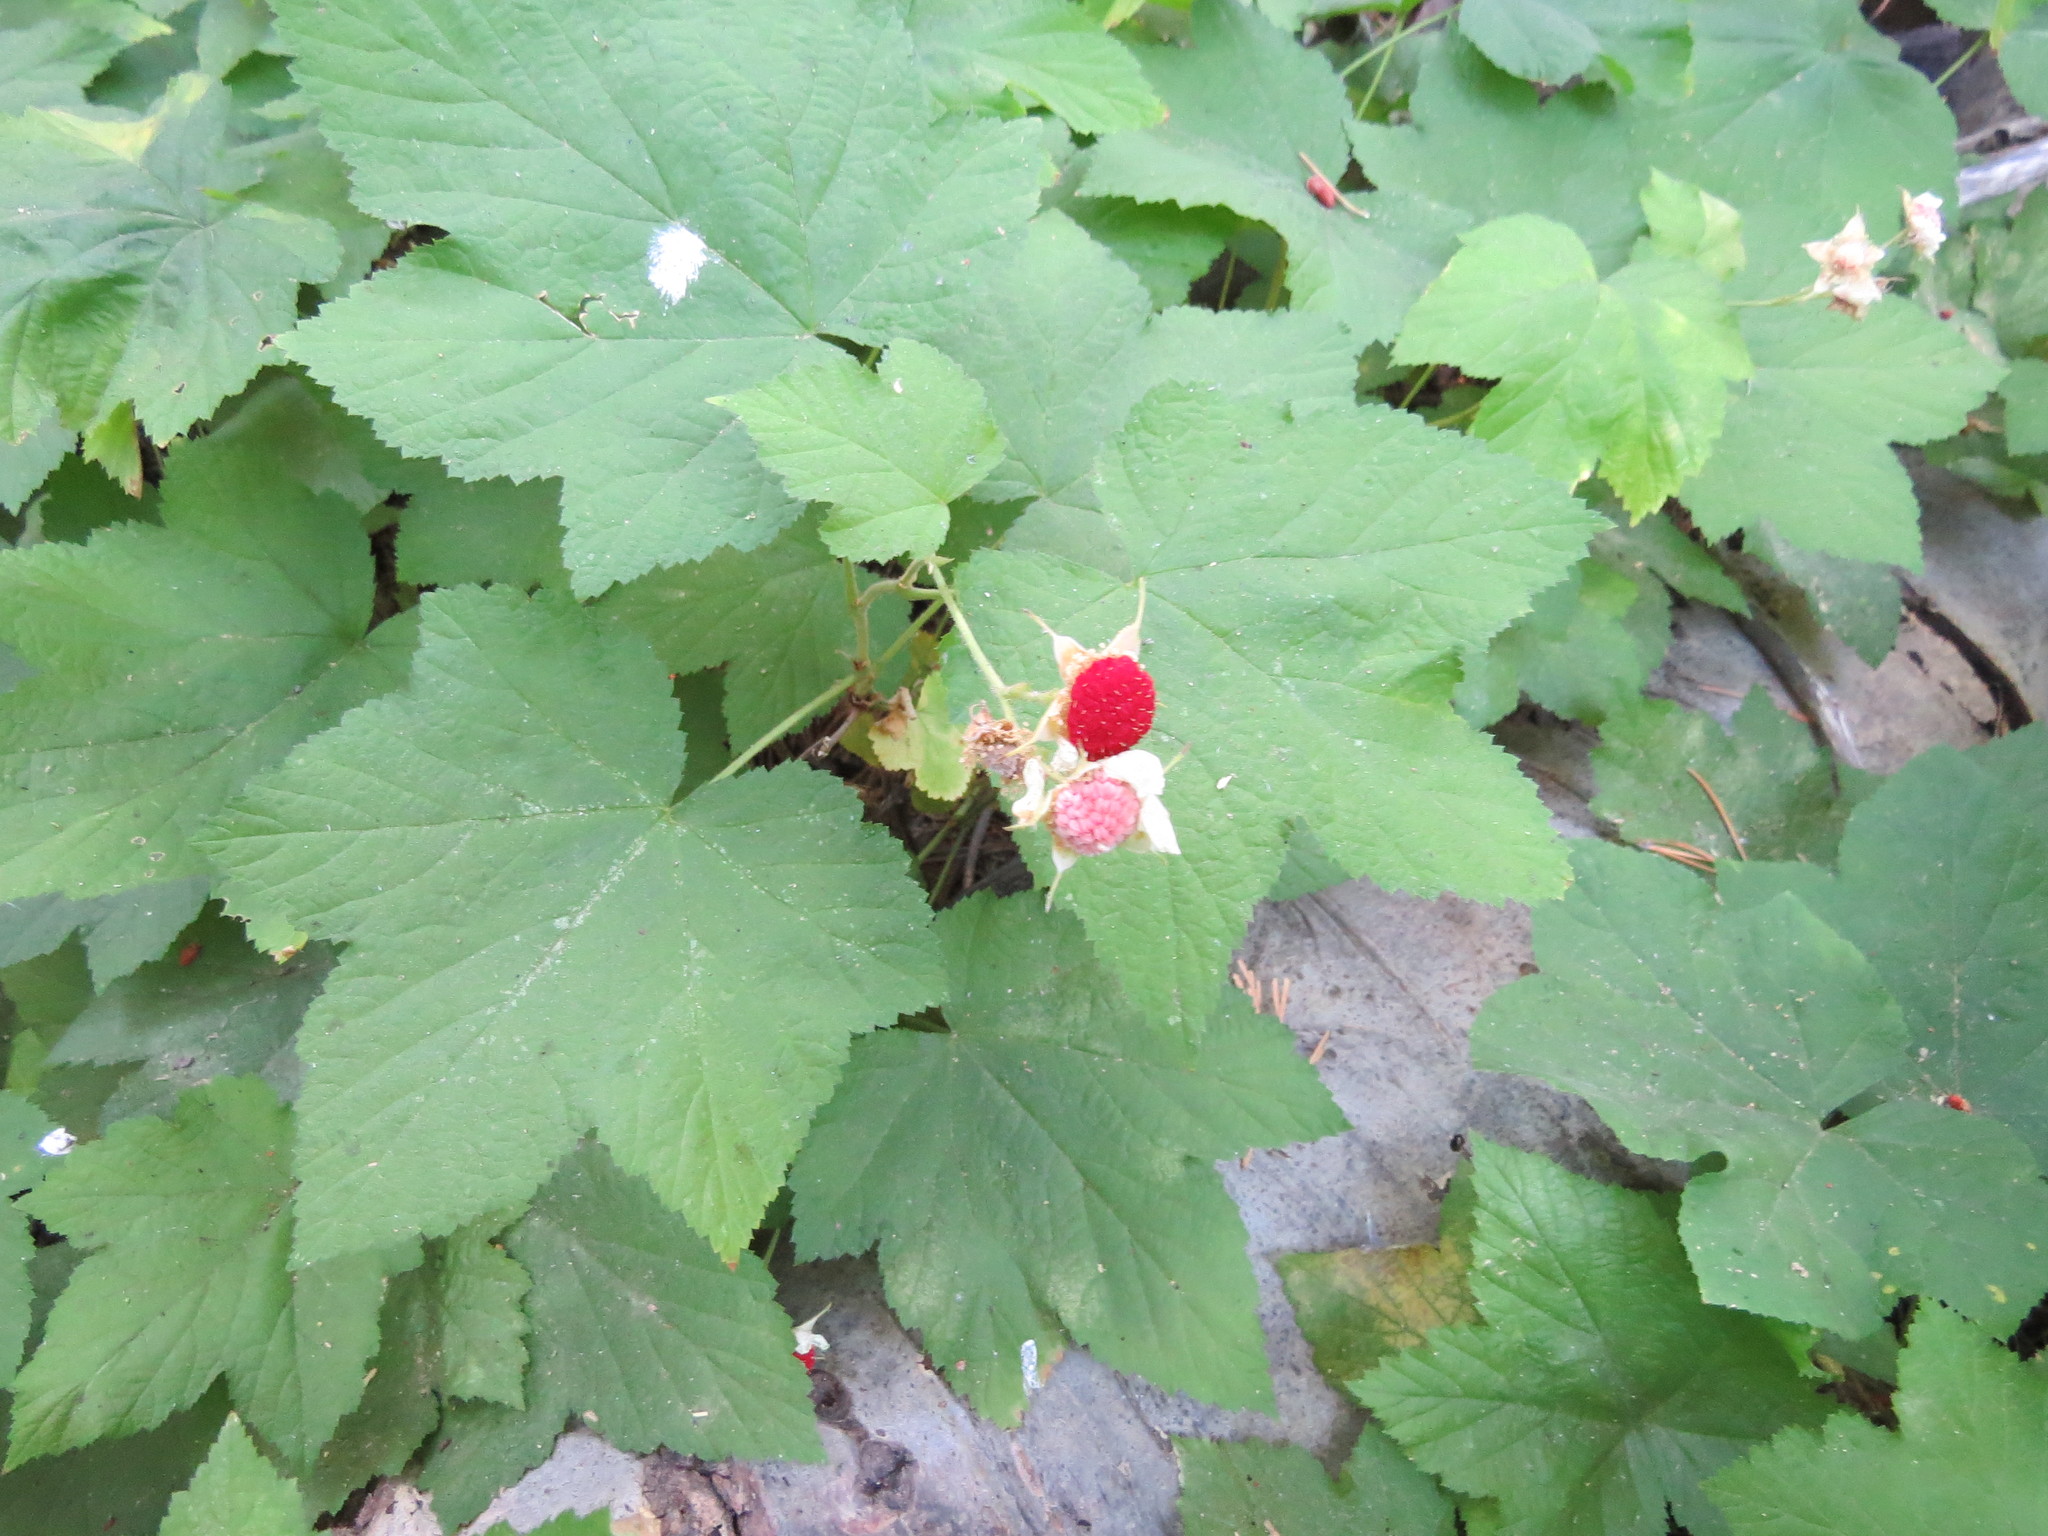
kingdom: Plantae
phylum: Tracheophyta
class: Magnoliopsida
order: Rosales
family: Rosaceae
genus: Rubus
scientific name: Rubus parviflorus
